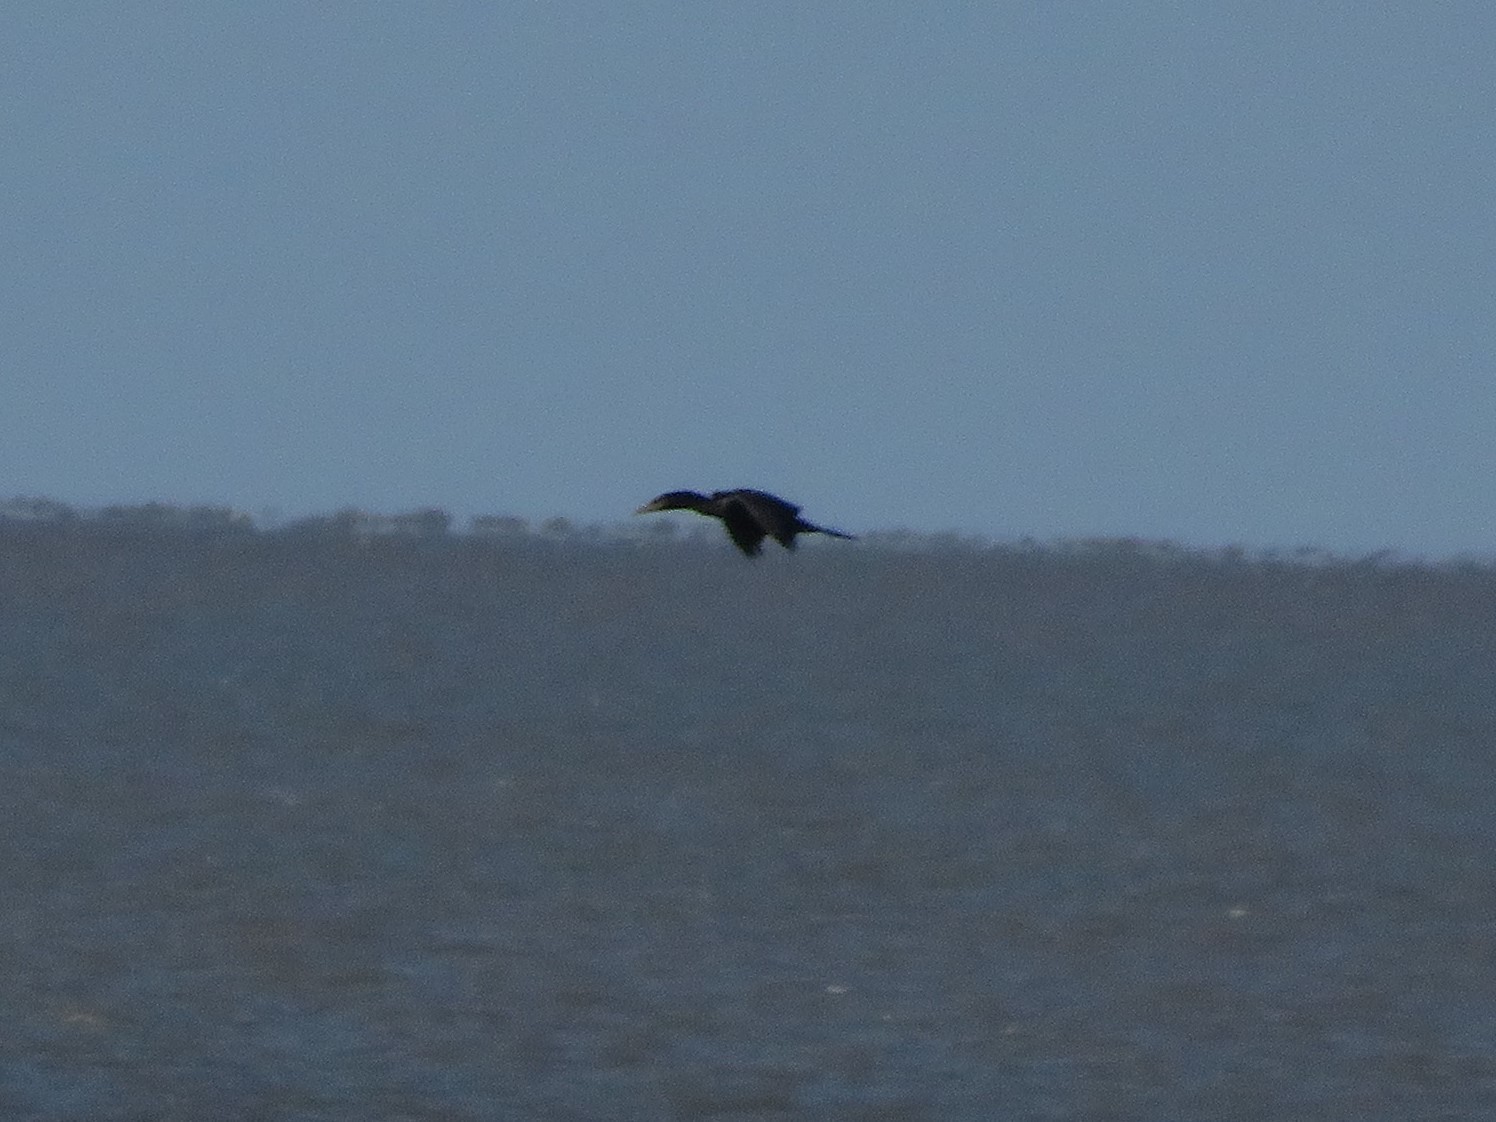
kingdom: Animalia
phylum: Chordata
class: Aves
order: Suliformes
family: Phalacrocoracidae
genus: Phalacrocorax
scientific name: Phalacrocorax brasilianus
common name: Neotropic cormorant
